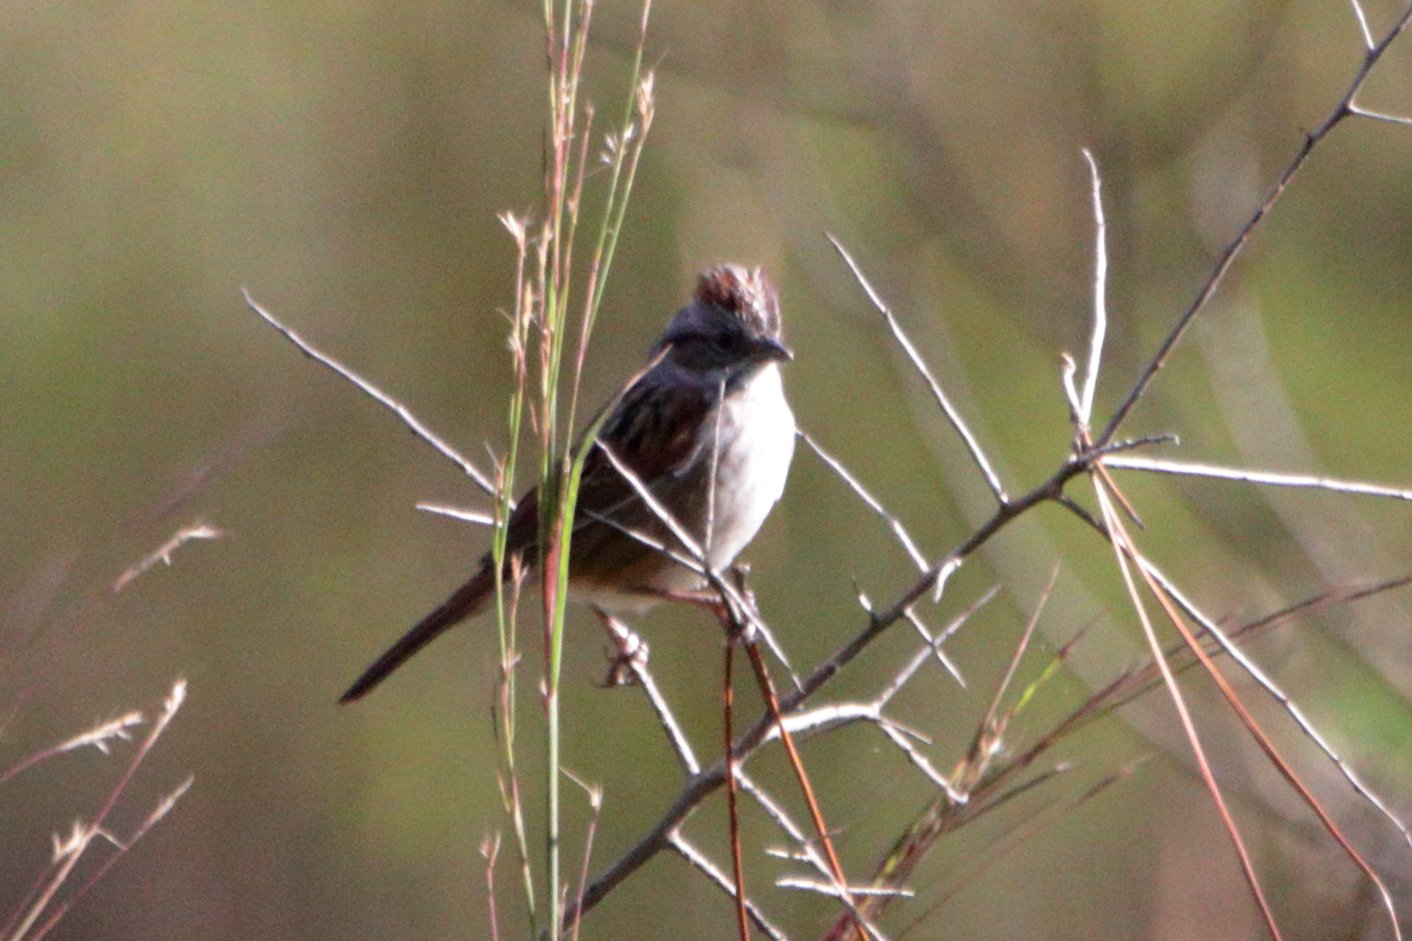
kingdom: Animalia
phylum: Chordata
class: Aves
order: Passeriformes
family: Passerellidae
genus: Melospiza
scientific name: Melospiza georgiana
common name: Swamp sparrow
